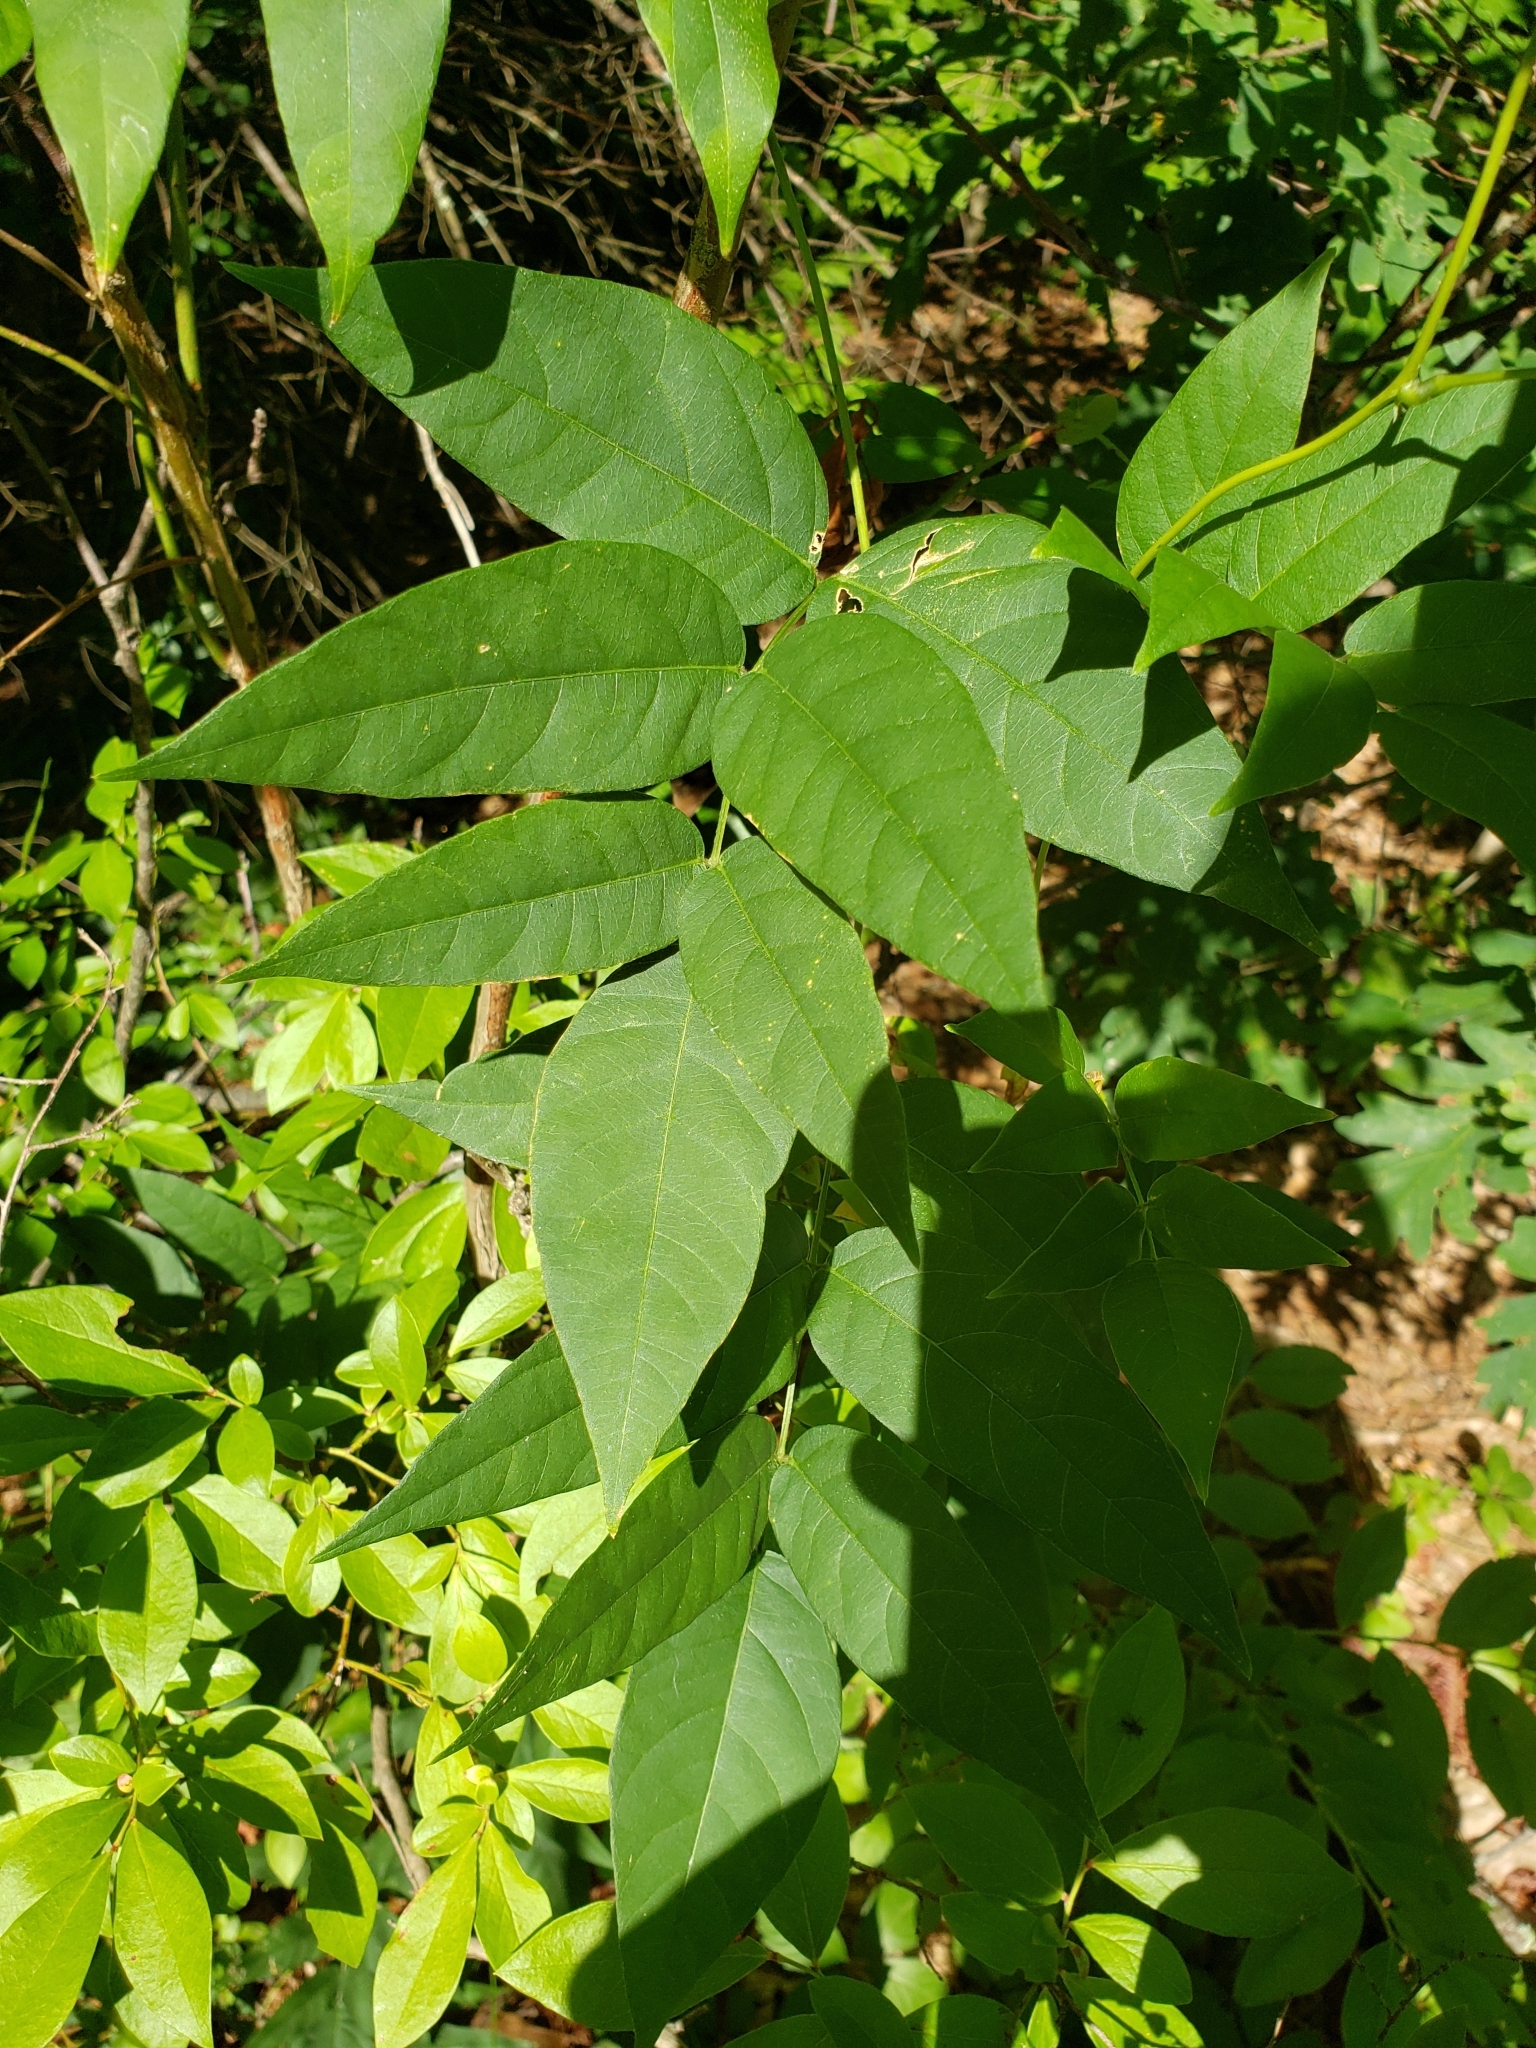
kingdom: Plantae
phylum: Tracheophyta
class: Magnoliopsida
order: Fabales
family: Fabaceae
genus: Apios
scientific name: Apios americana
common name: American potato-bean
